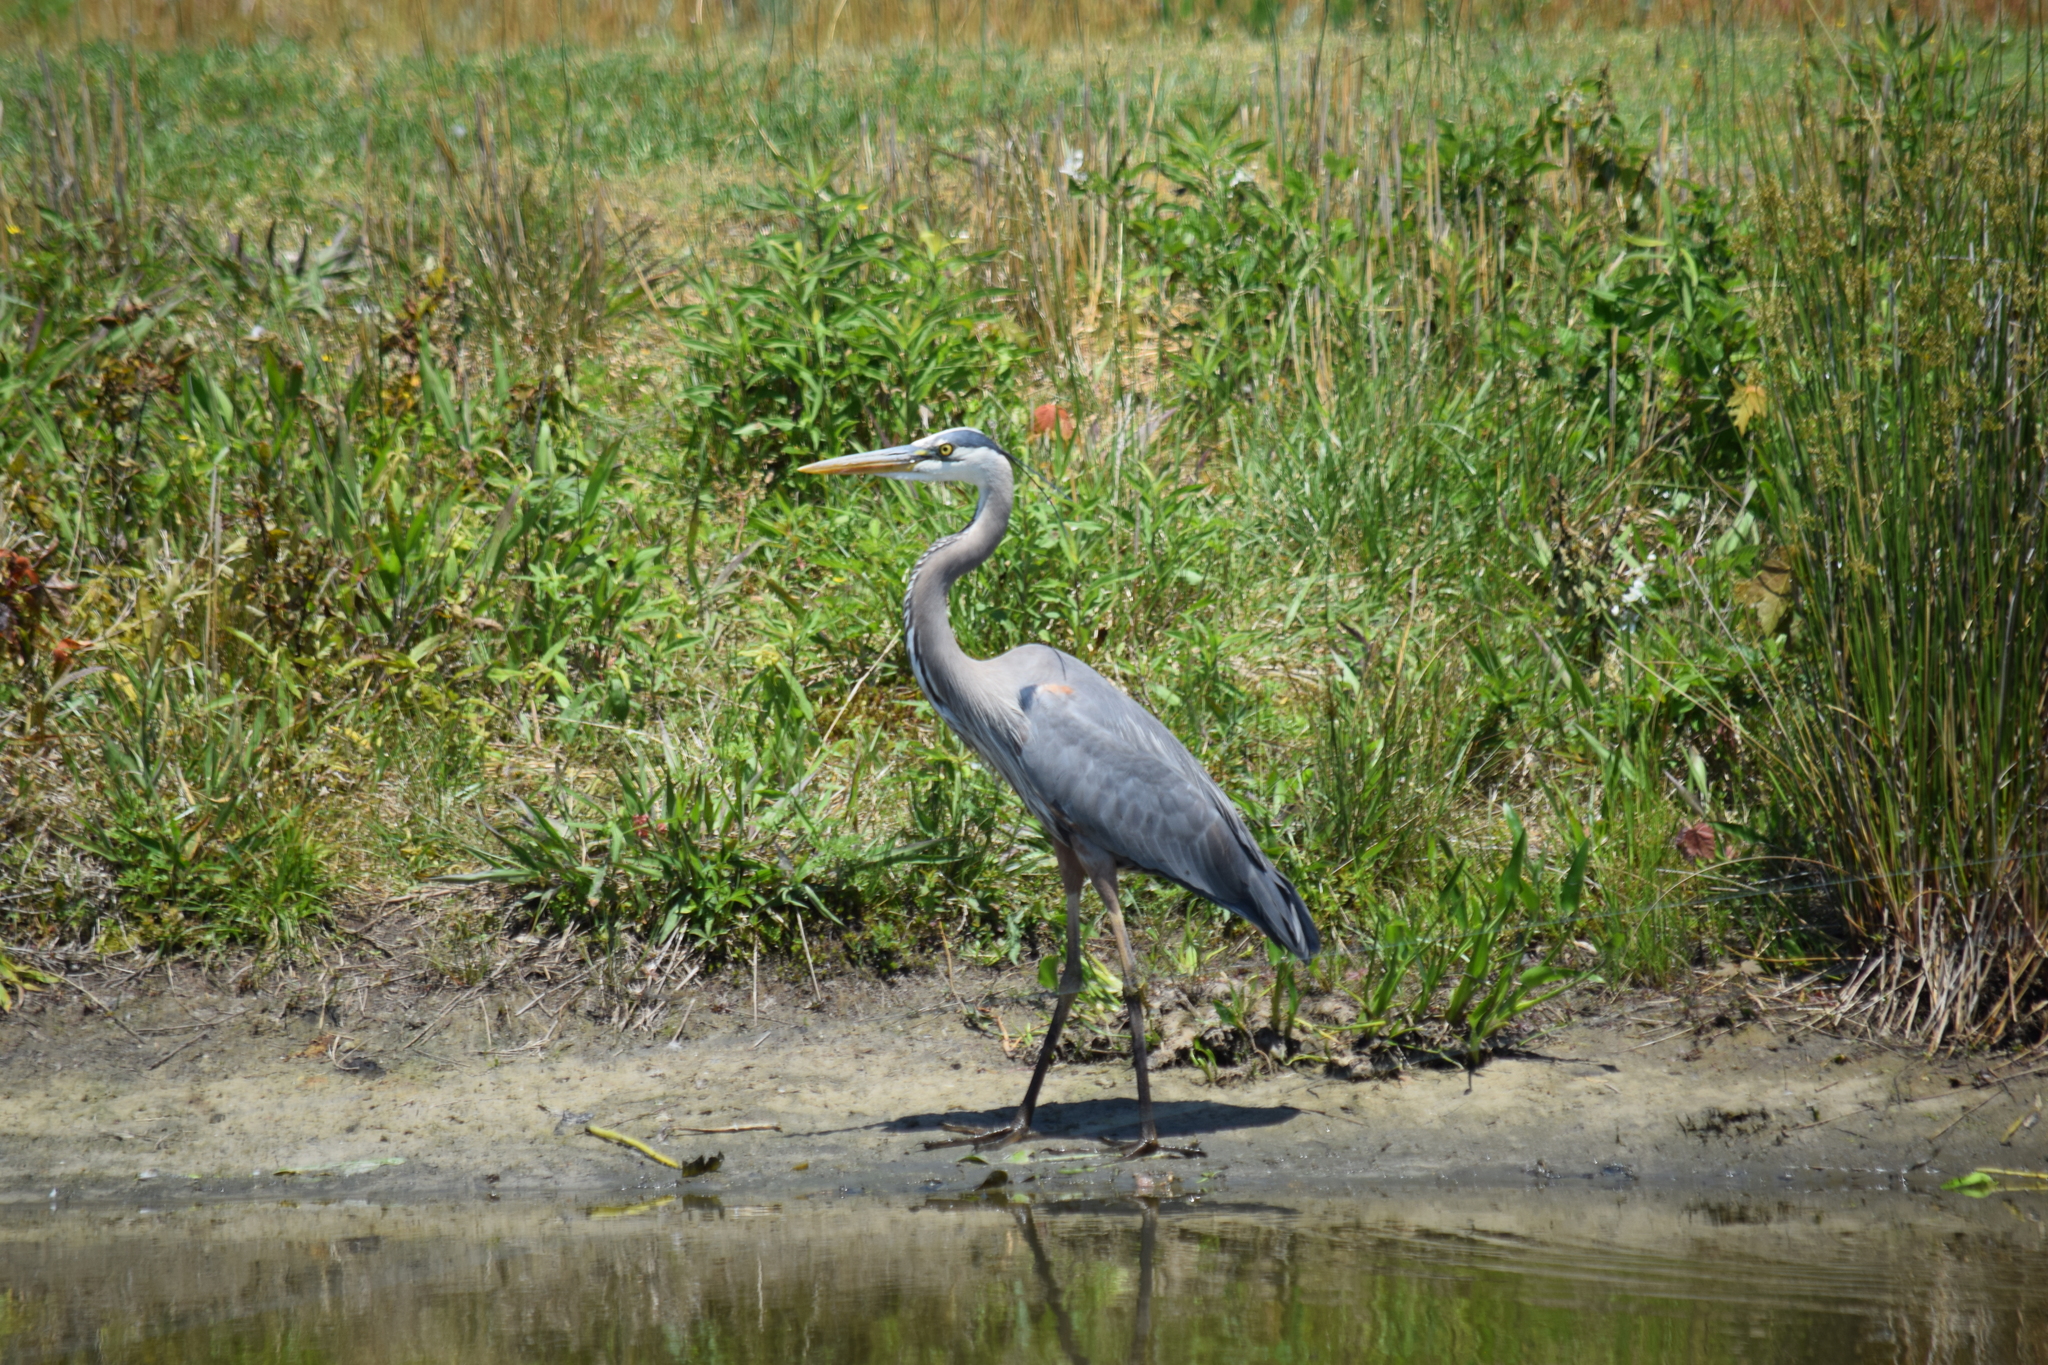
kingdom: Animalia
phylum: Chordata
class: Aves
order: Pelecaniformes
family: Ardeidae
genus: Ardea
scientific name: Ardea herodias
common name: Great blue heron
